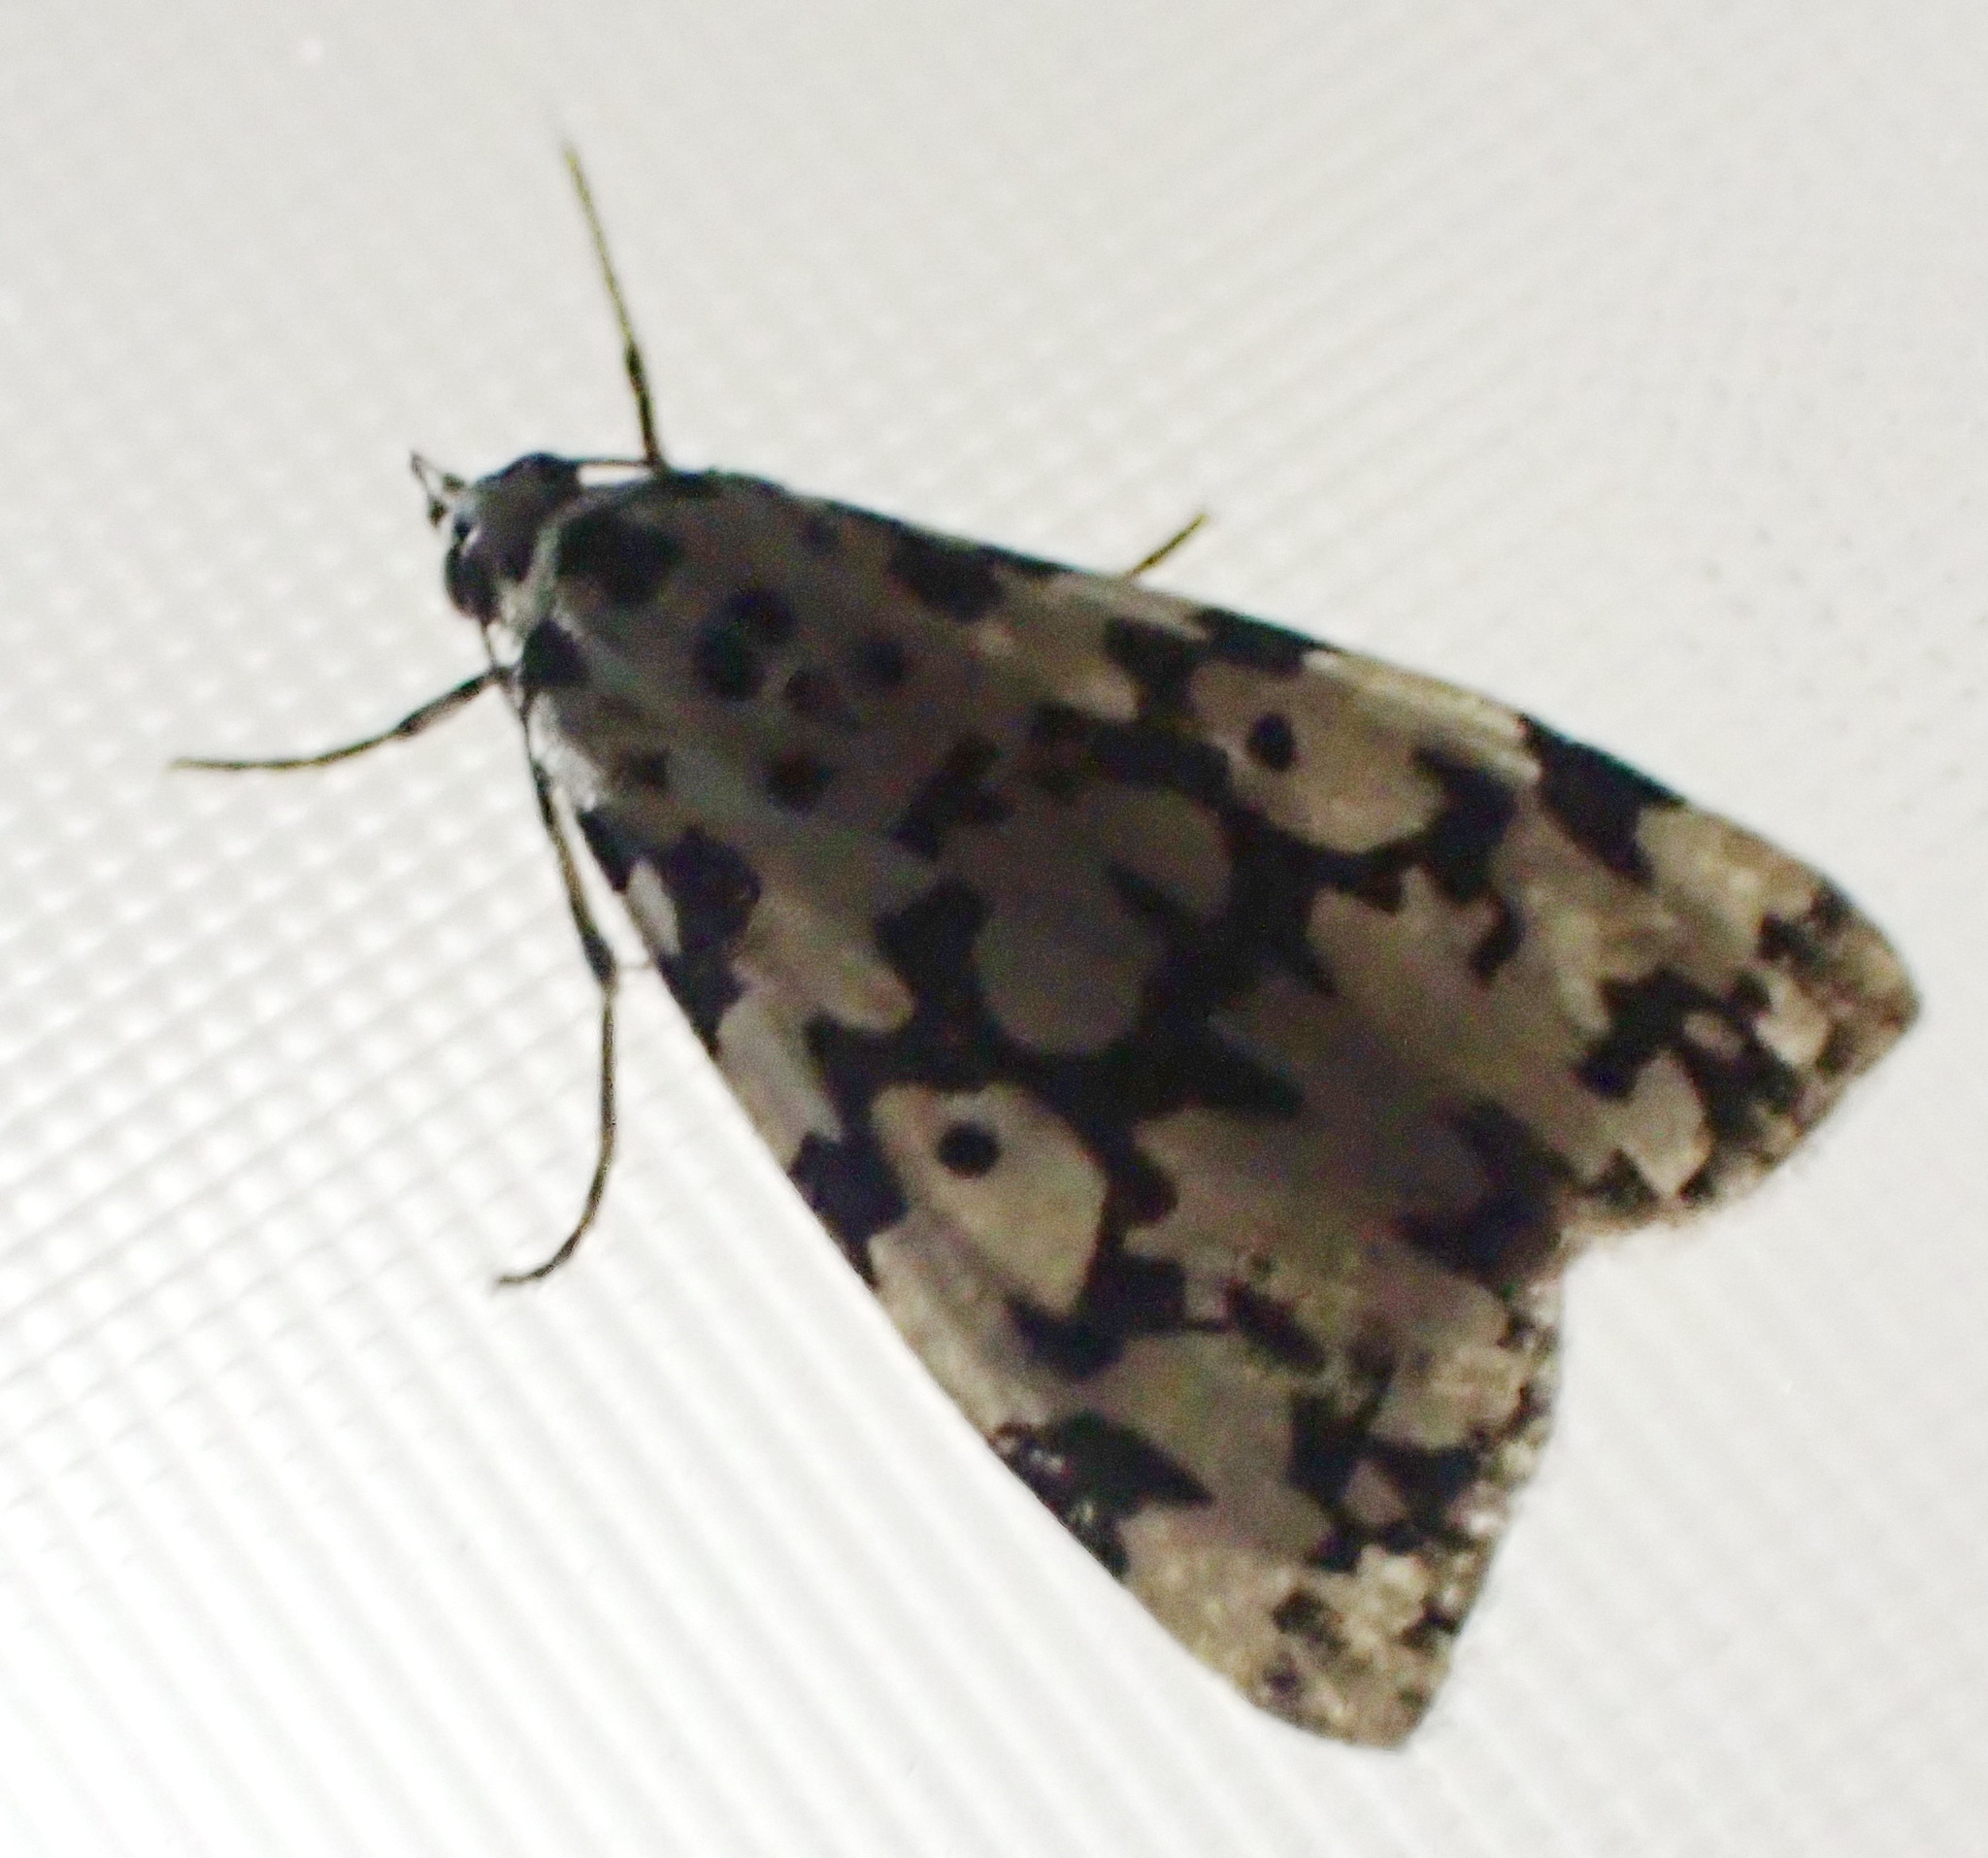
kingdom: Animalia
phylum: Arthropoda
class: Insecta
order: Lepidoptera
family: Erebidae
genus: Digama
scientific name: Digama strabonis
